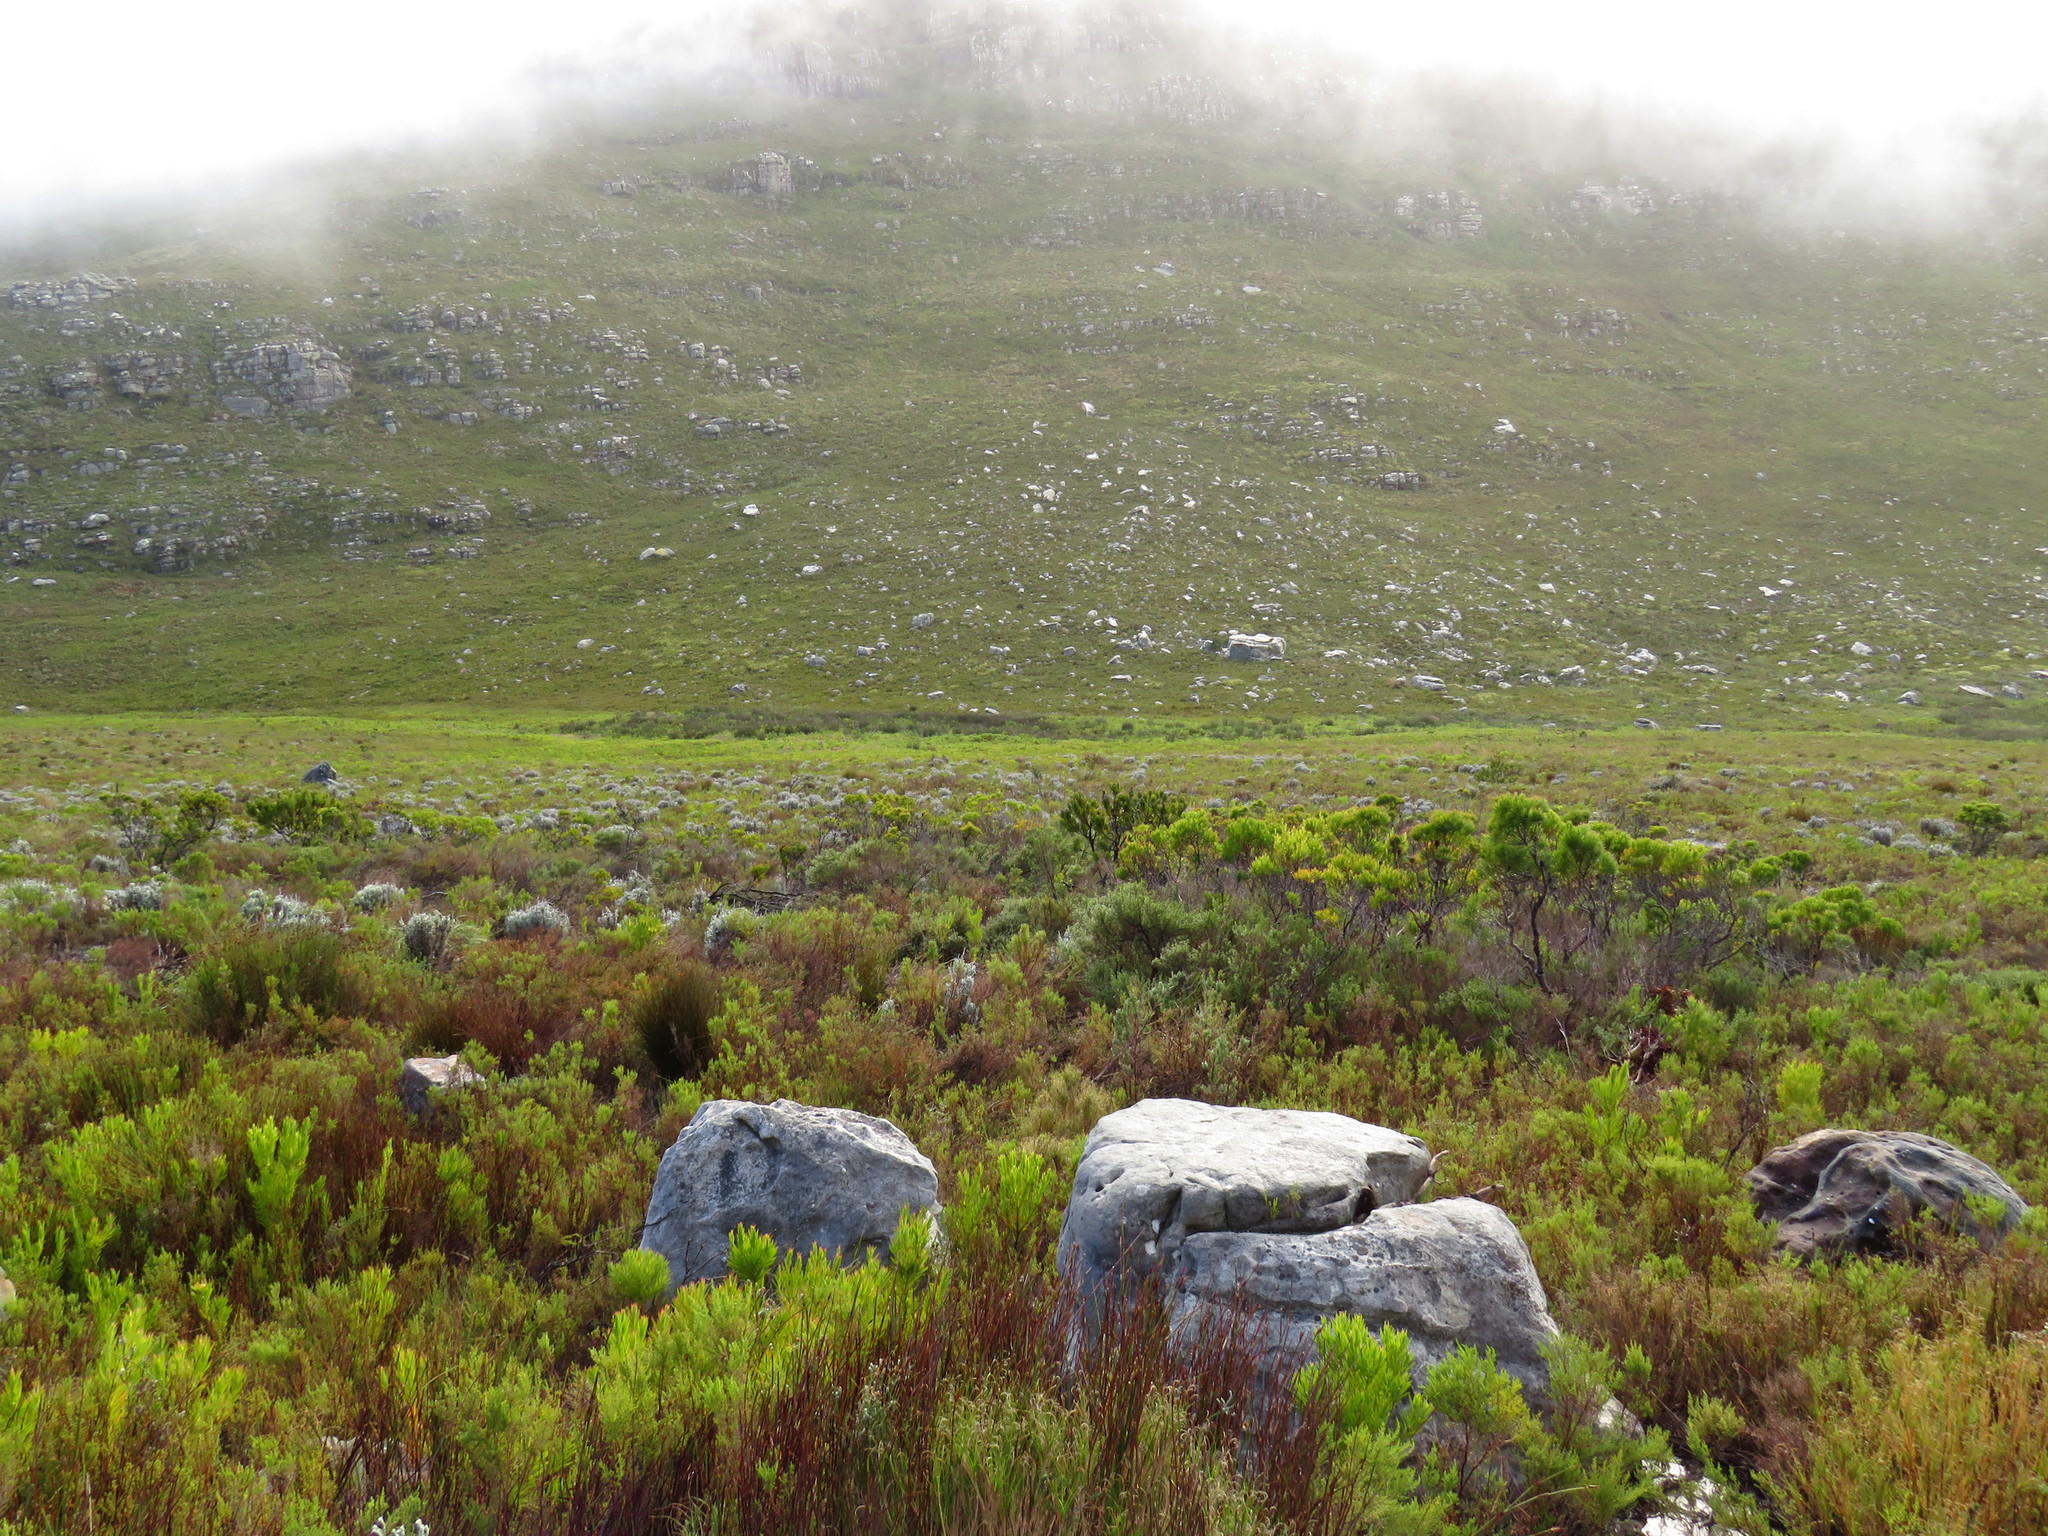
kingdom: Plantae
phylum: Tracheophyta
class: Magnoliopsida
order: Proteales
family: Proteaceae
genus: Protea
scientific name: Protea lepidocarpodendron
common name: Black-bearded protea
